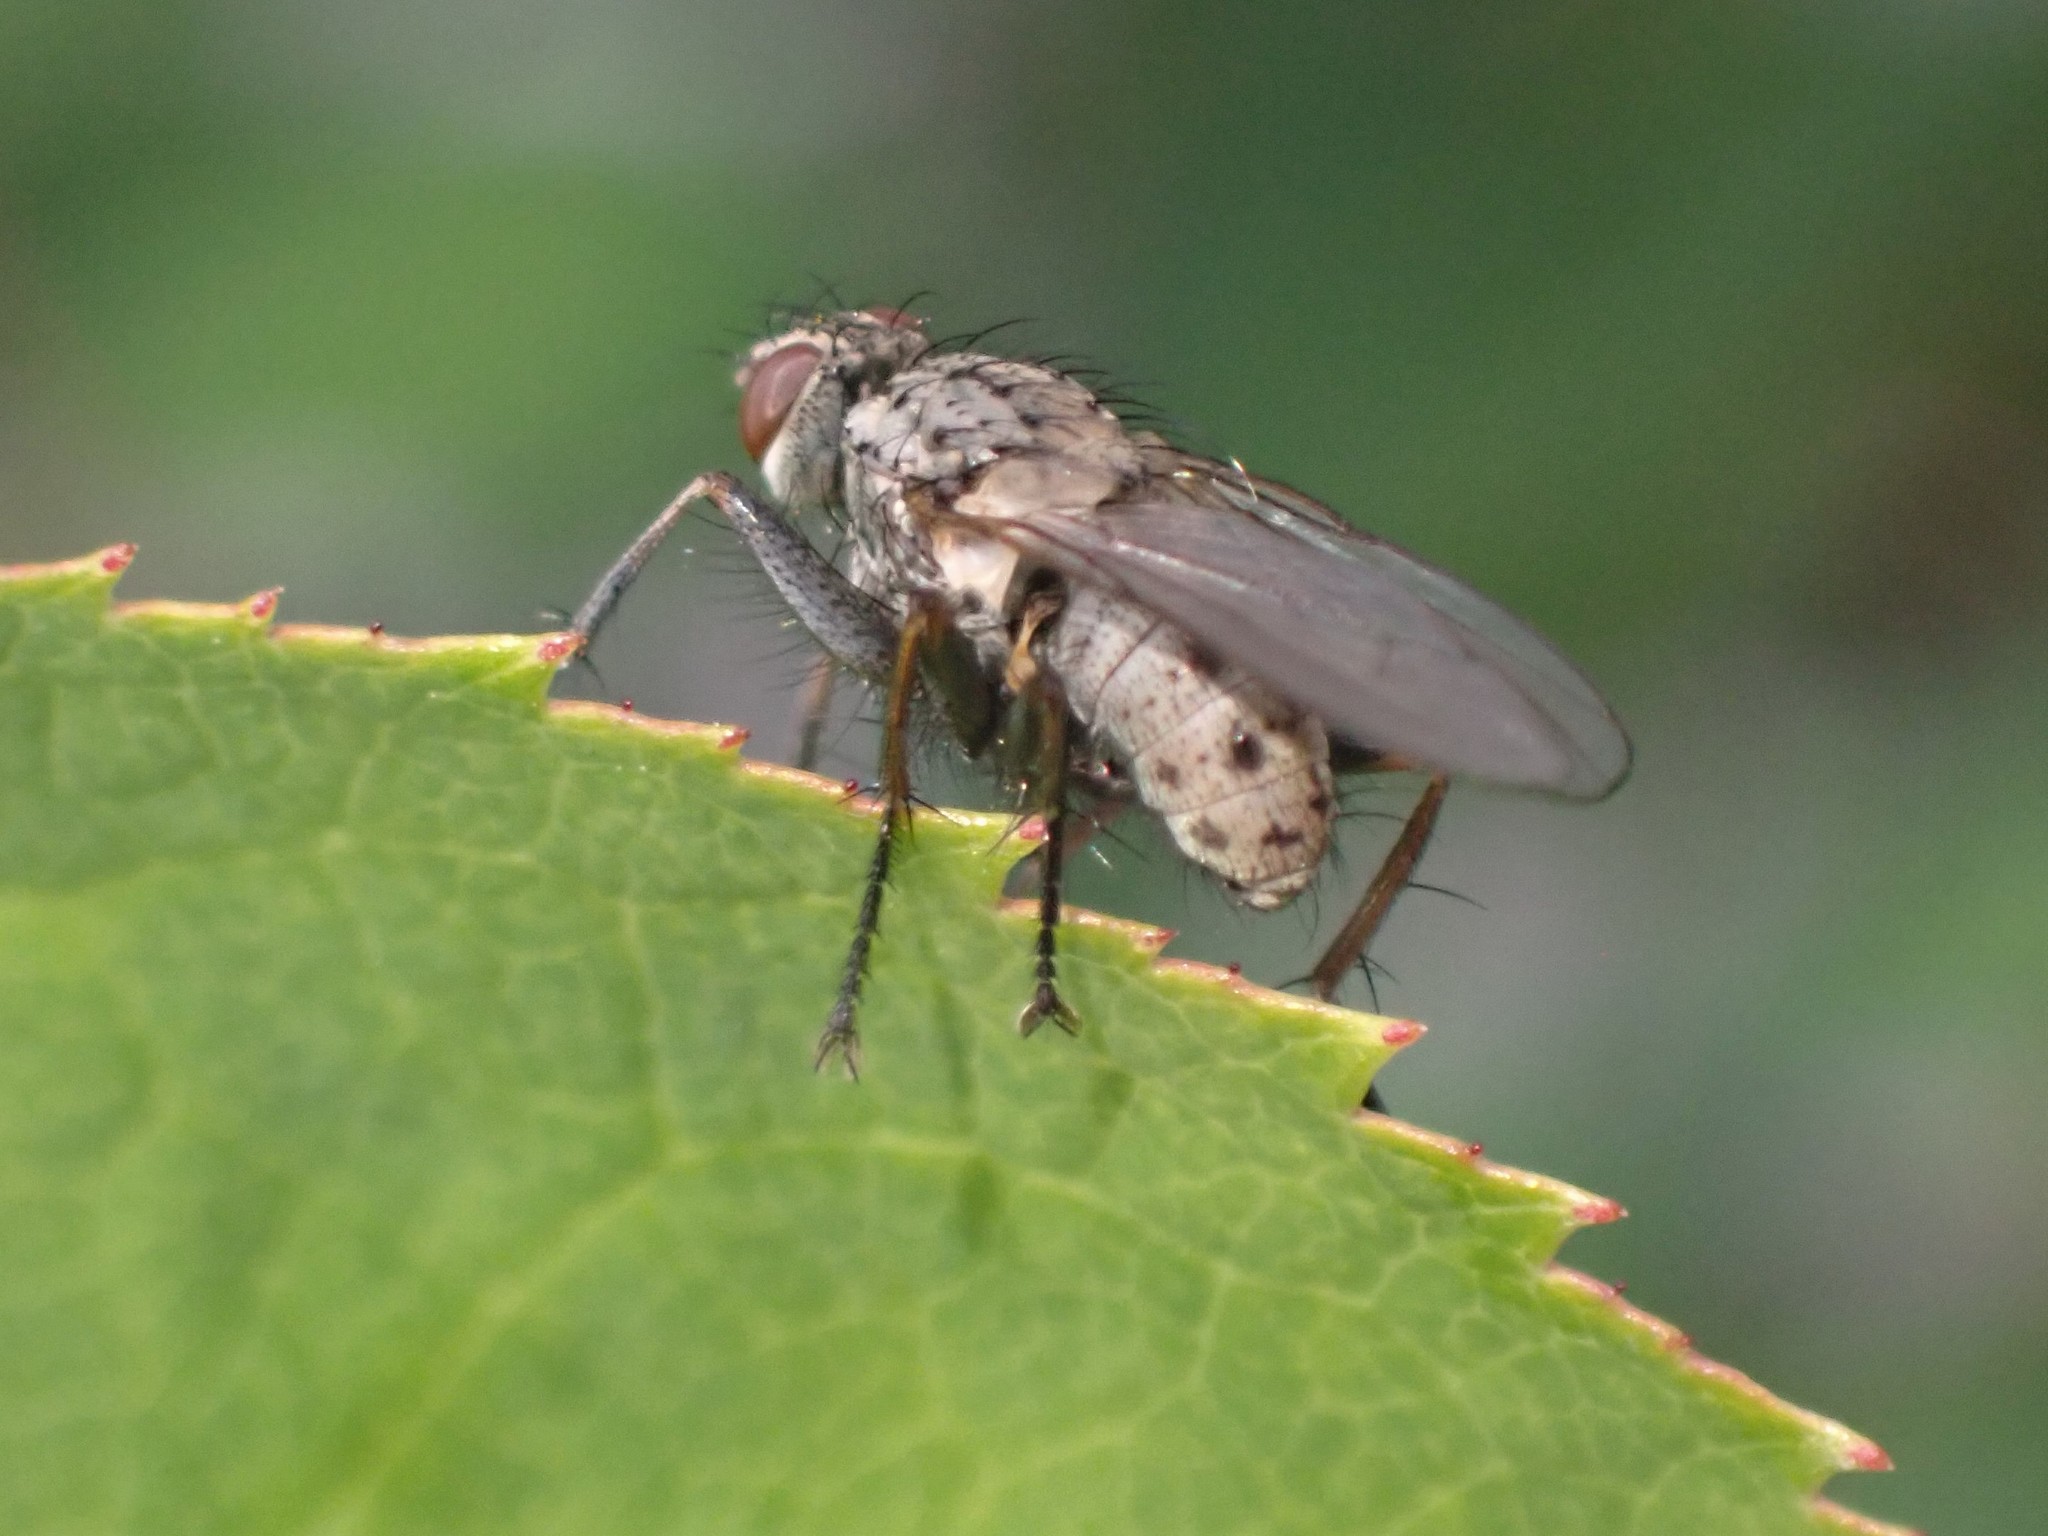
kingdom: Animalia
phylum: Arthropoda
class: Insecta
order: Diptera
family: Muscidae
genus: Coenosia
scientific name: Coenosia tigrina
